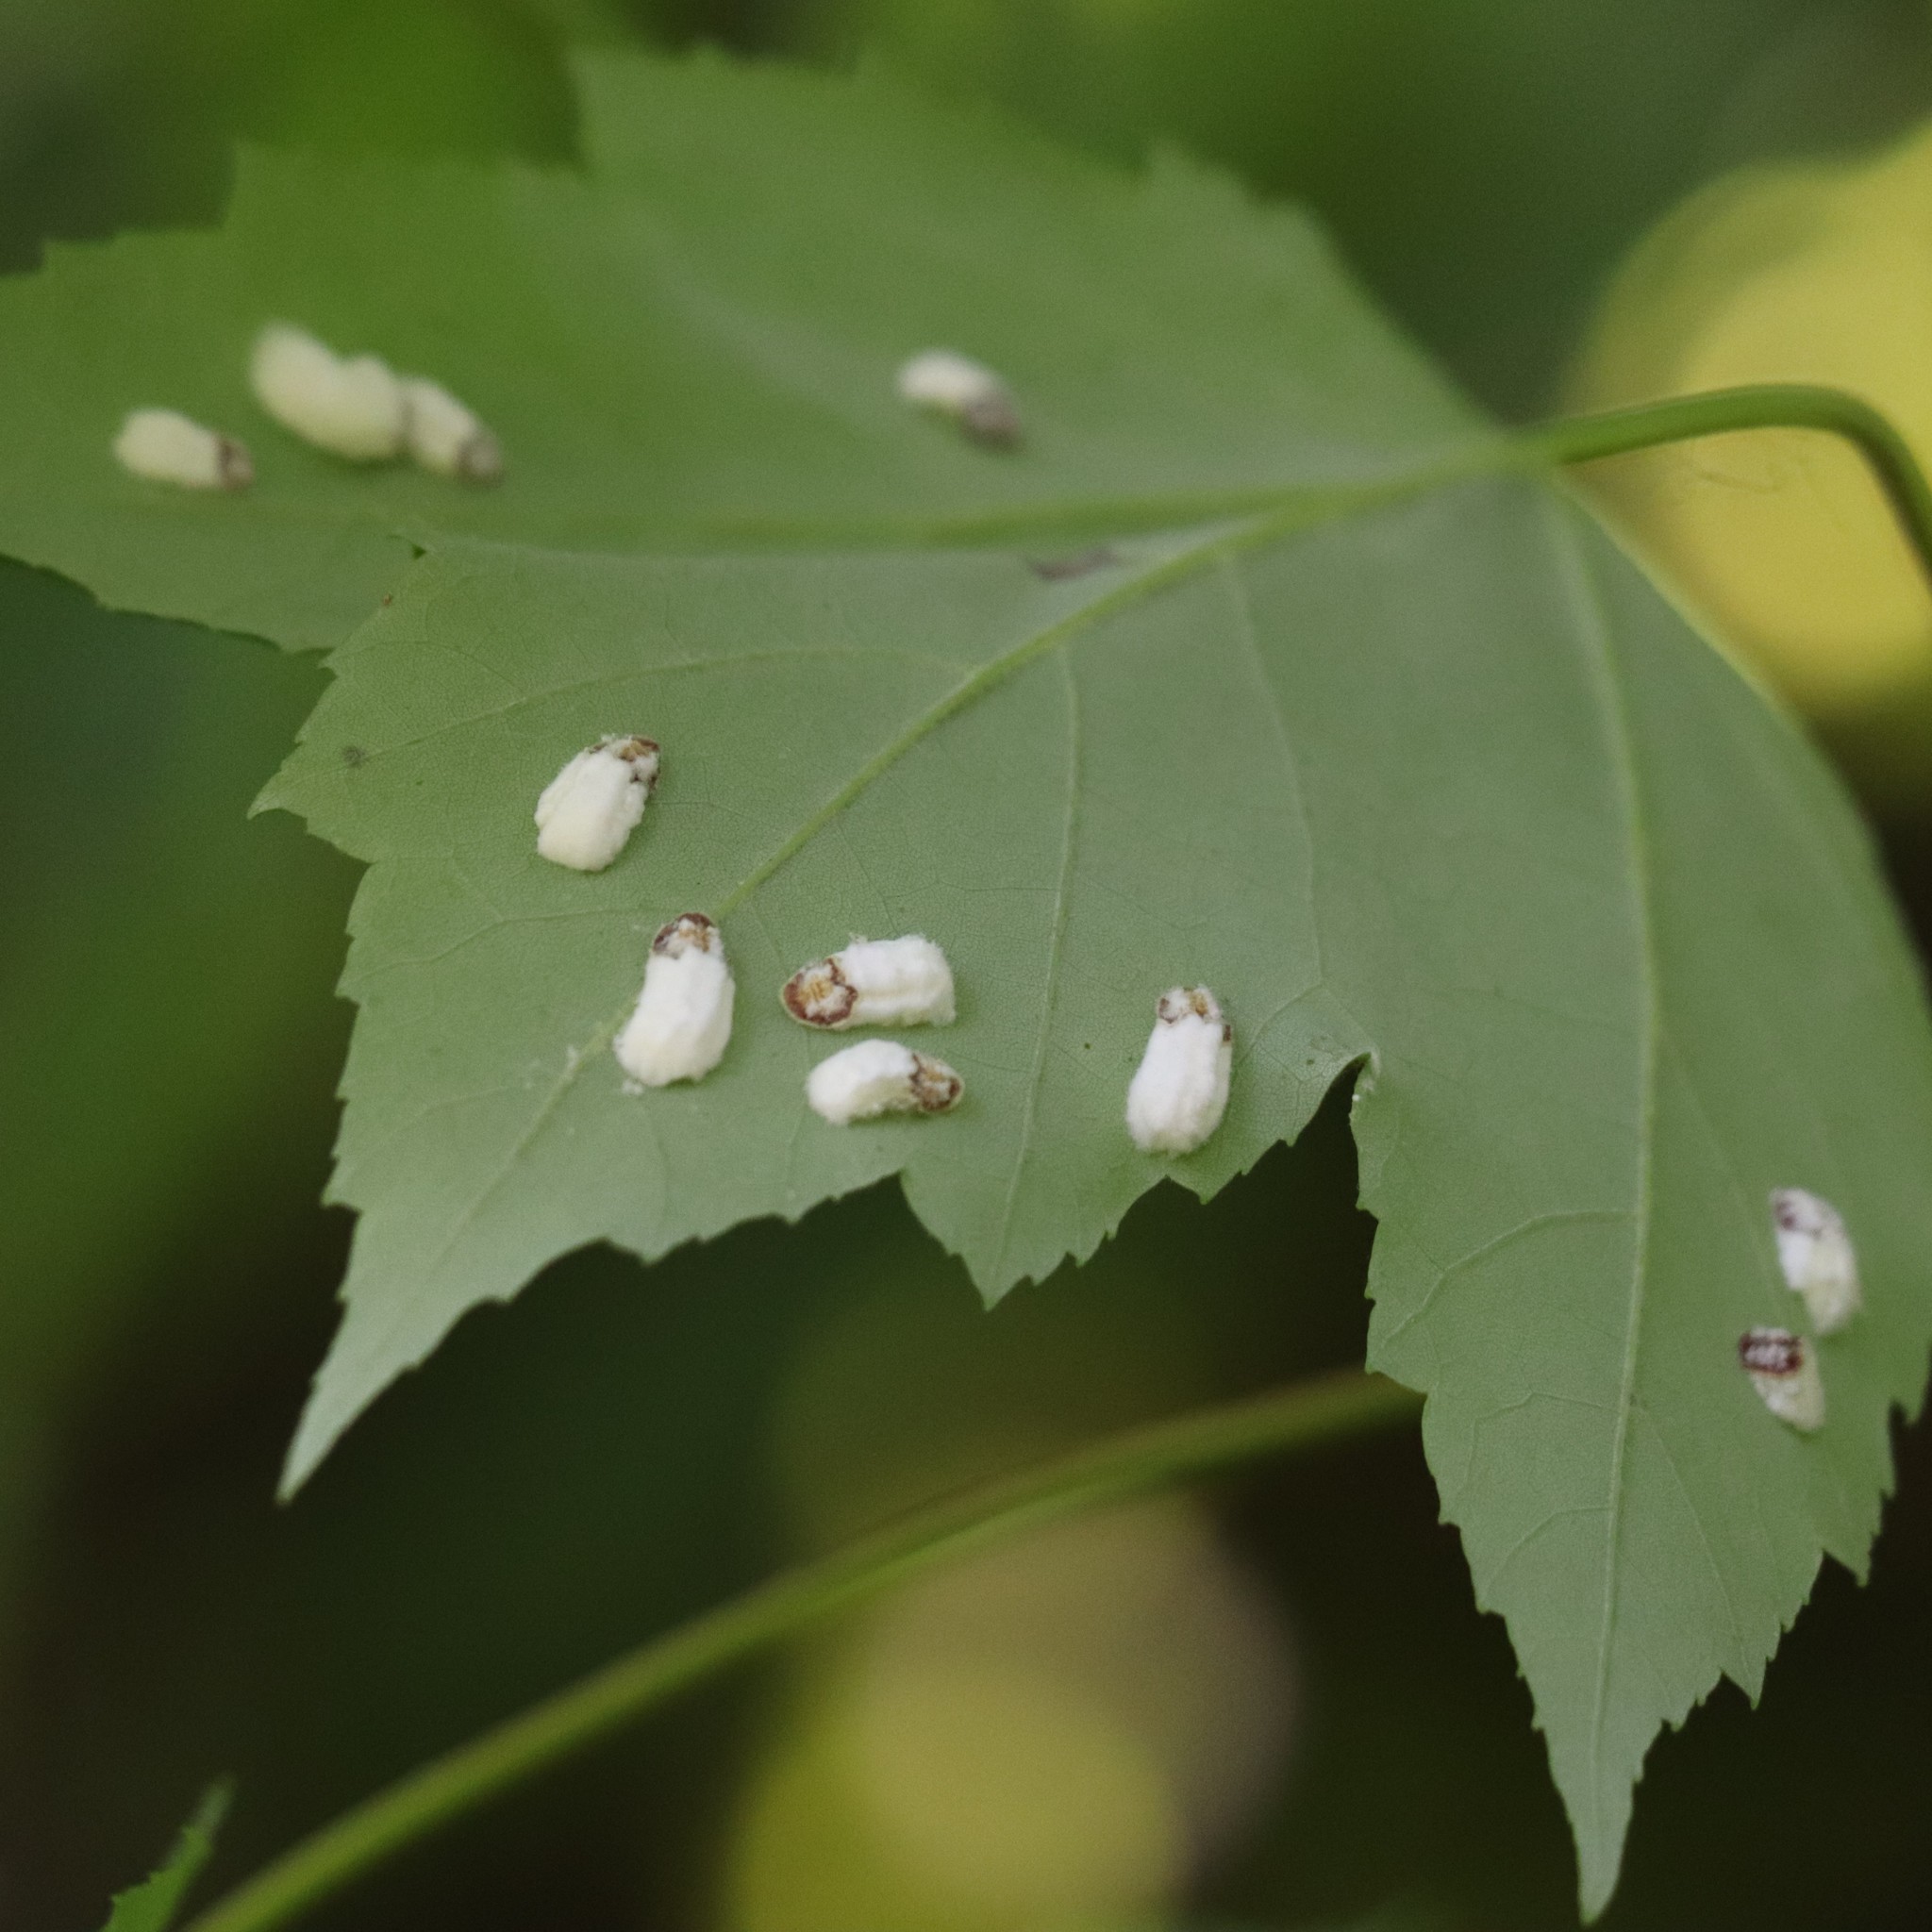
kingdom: Animalia
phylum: Arthropoda
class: Insecta
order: Hemiptera
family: Coccidae
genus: Pulvinaria
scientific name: Pulvinaria acericola
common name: Cottony maple leaf scale
